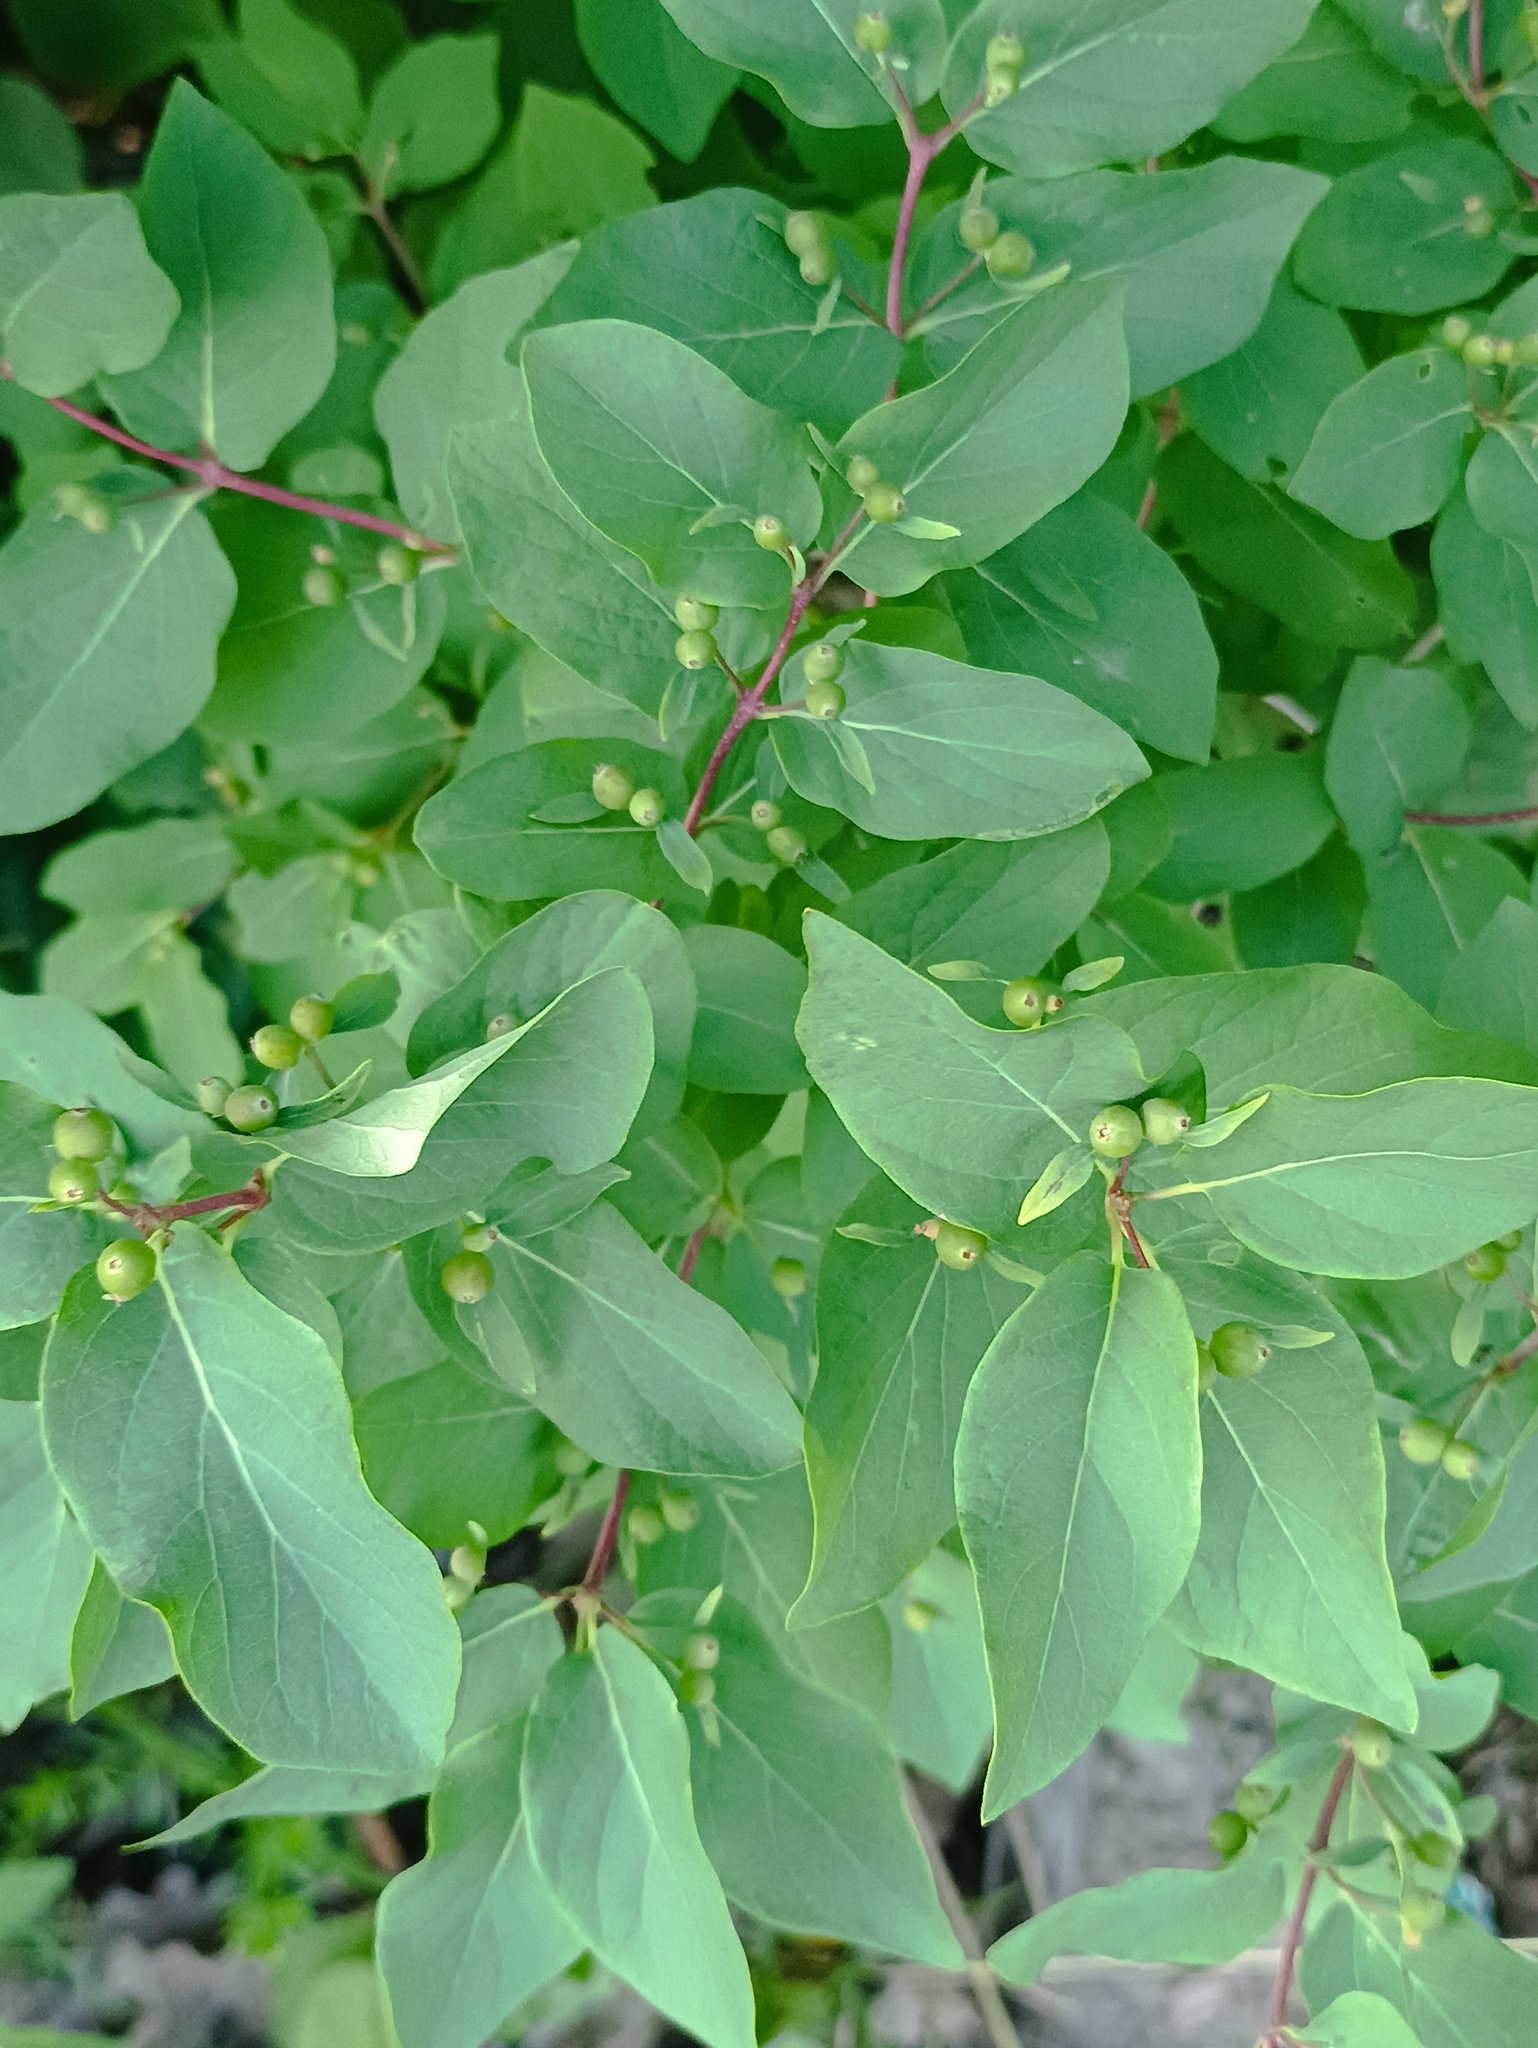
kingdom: Plantae
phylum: Tracheophyta
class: Magnoliopsida
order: Dipsacales
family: Caprifoliaceae
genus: Lonicera
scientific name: Lonicera tatarica
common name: Tatarian honeysuckle
